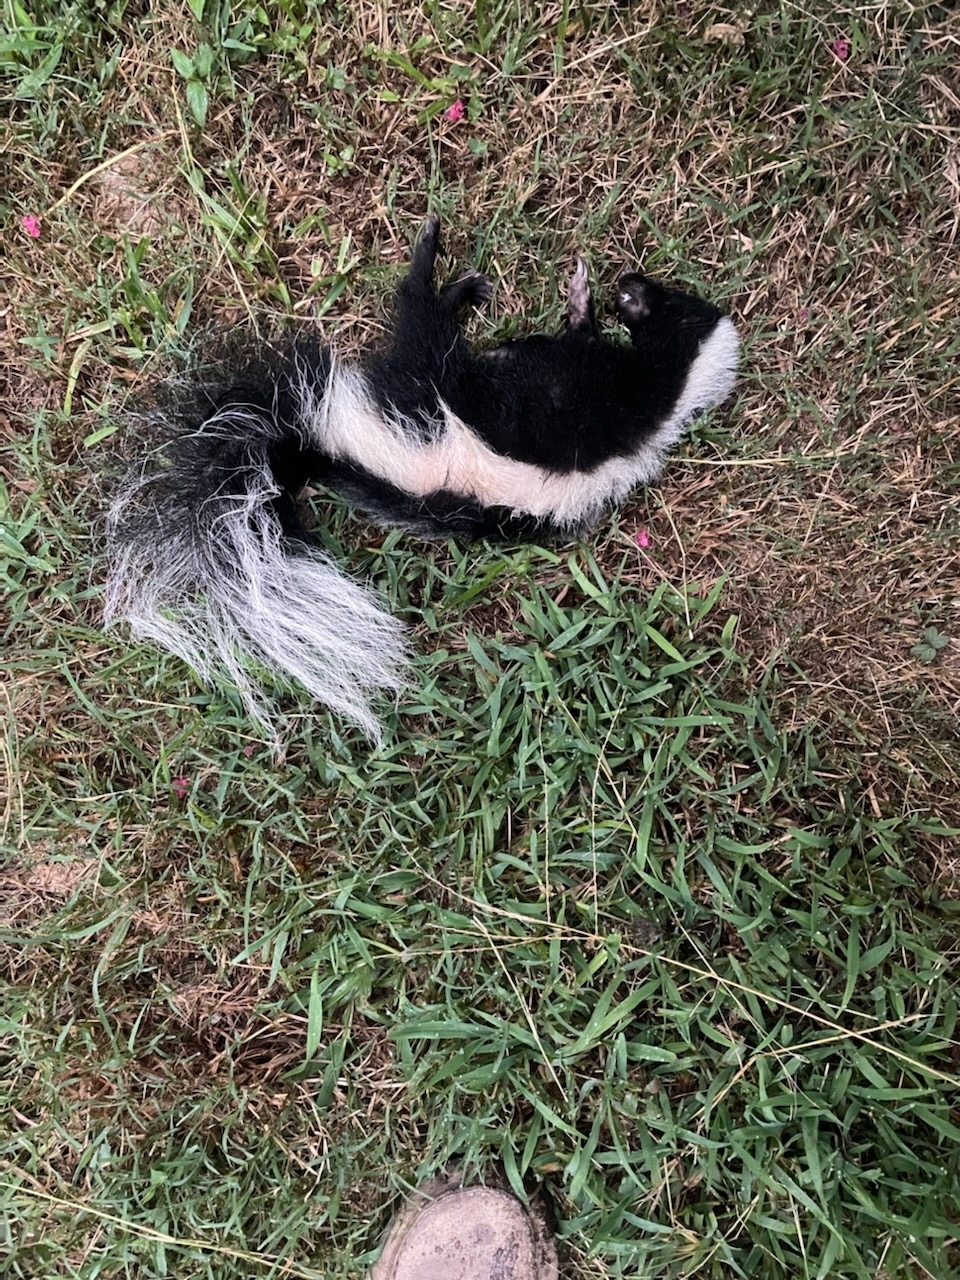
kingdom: Animalia
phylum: Chordata
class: Mammalia
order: Carnivora
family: Mephitidae
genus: Mephitis
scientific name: Mephitis mephitis
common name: Striped skunk
